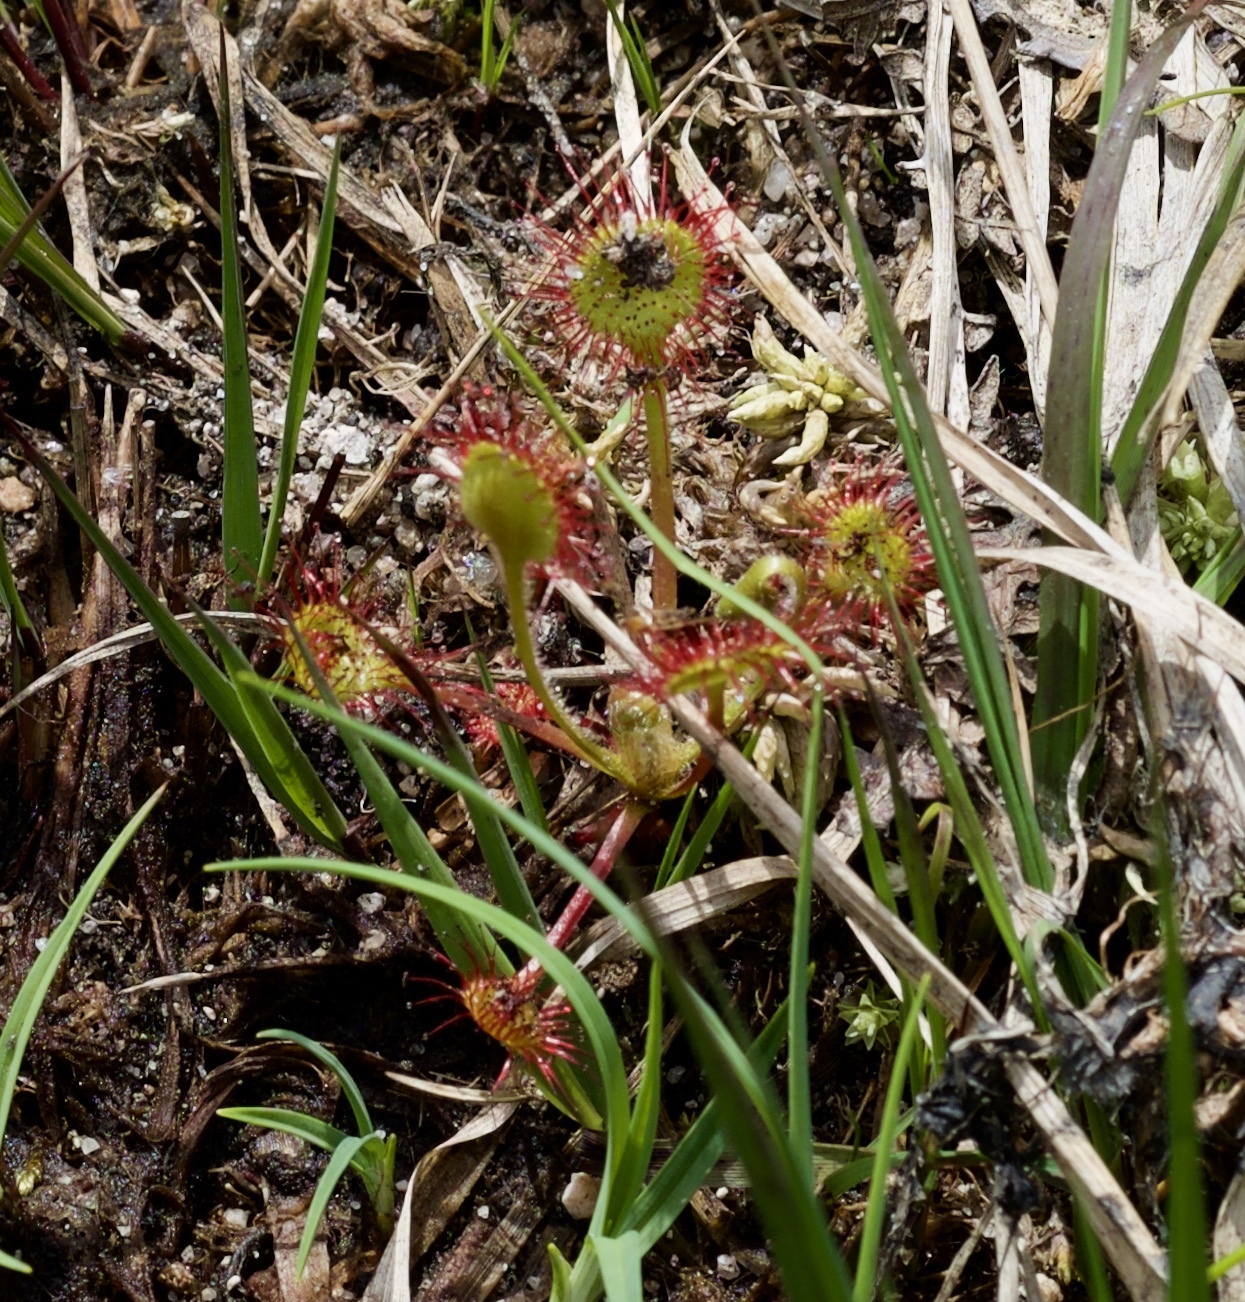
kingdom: Plantae
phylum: Tracheophyta
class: Magnoliopsida
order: Caryophyllales
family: Droseraceae
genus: Drosera
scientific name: Drosera rotundifolia
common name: Round-leaved sundew
